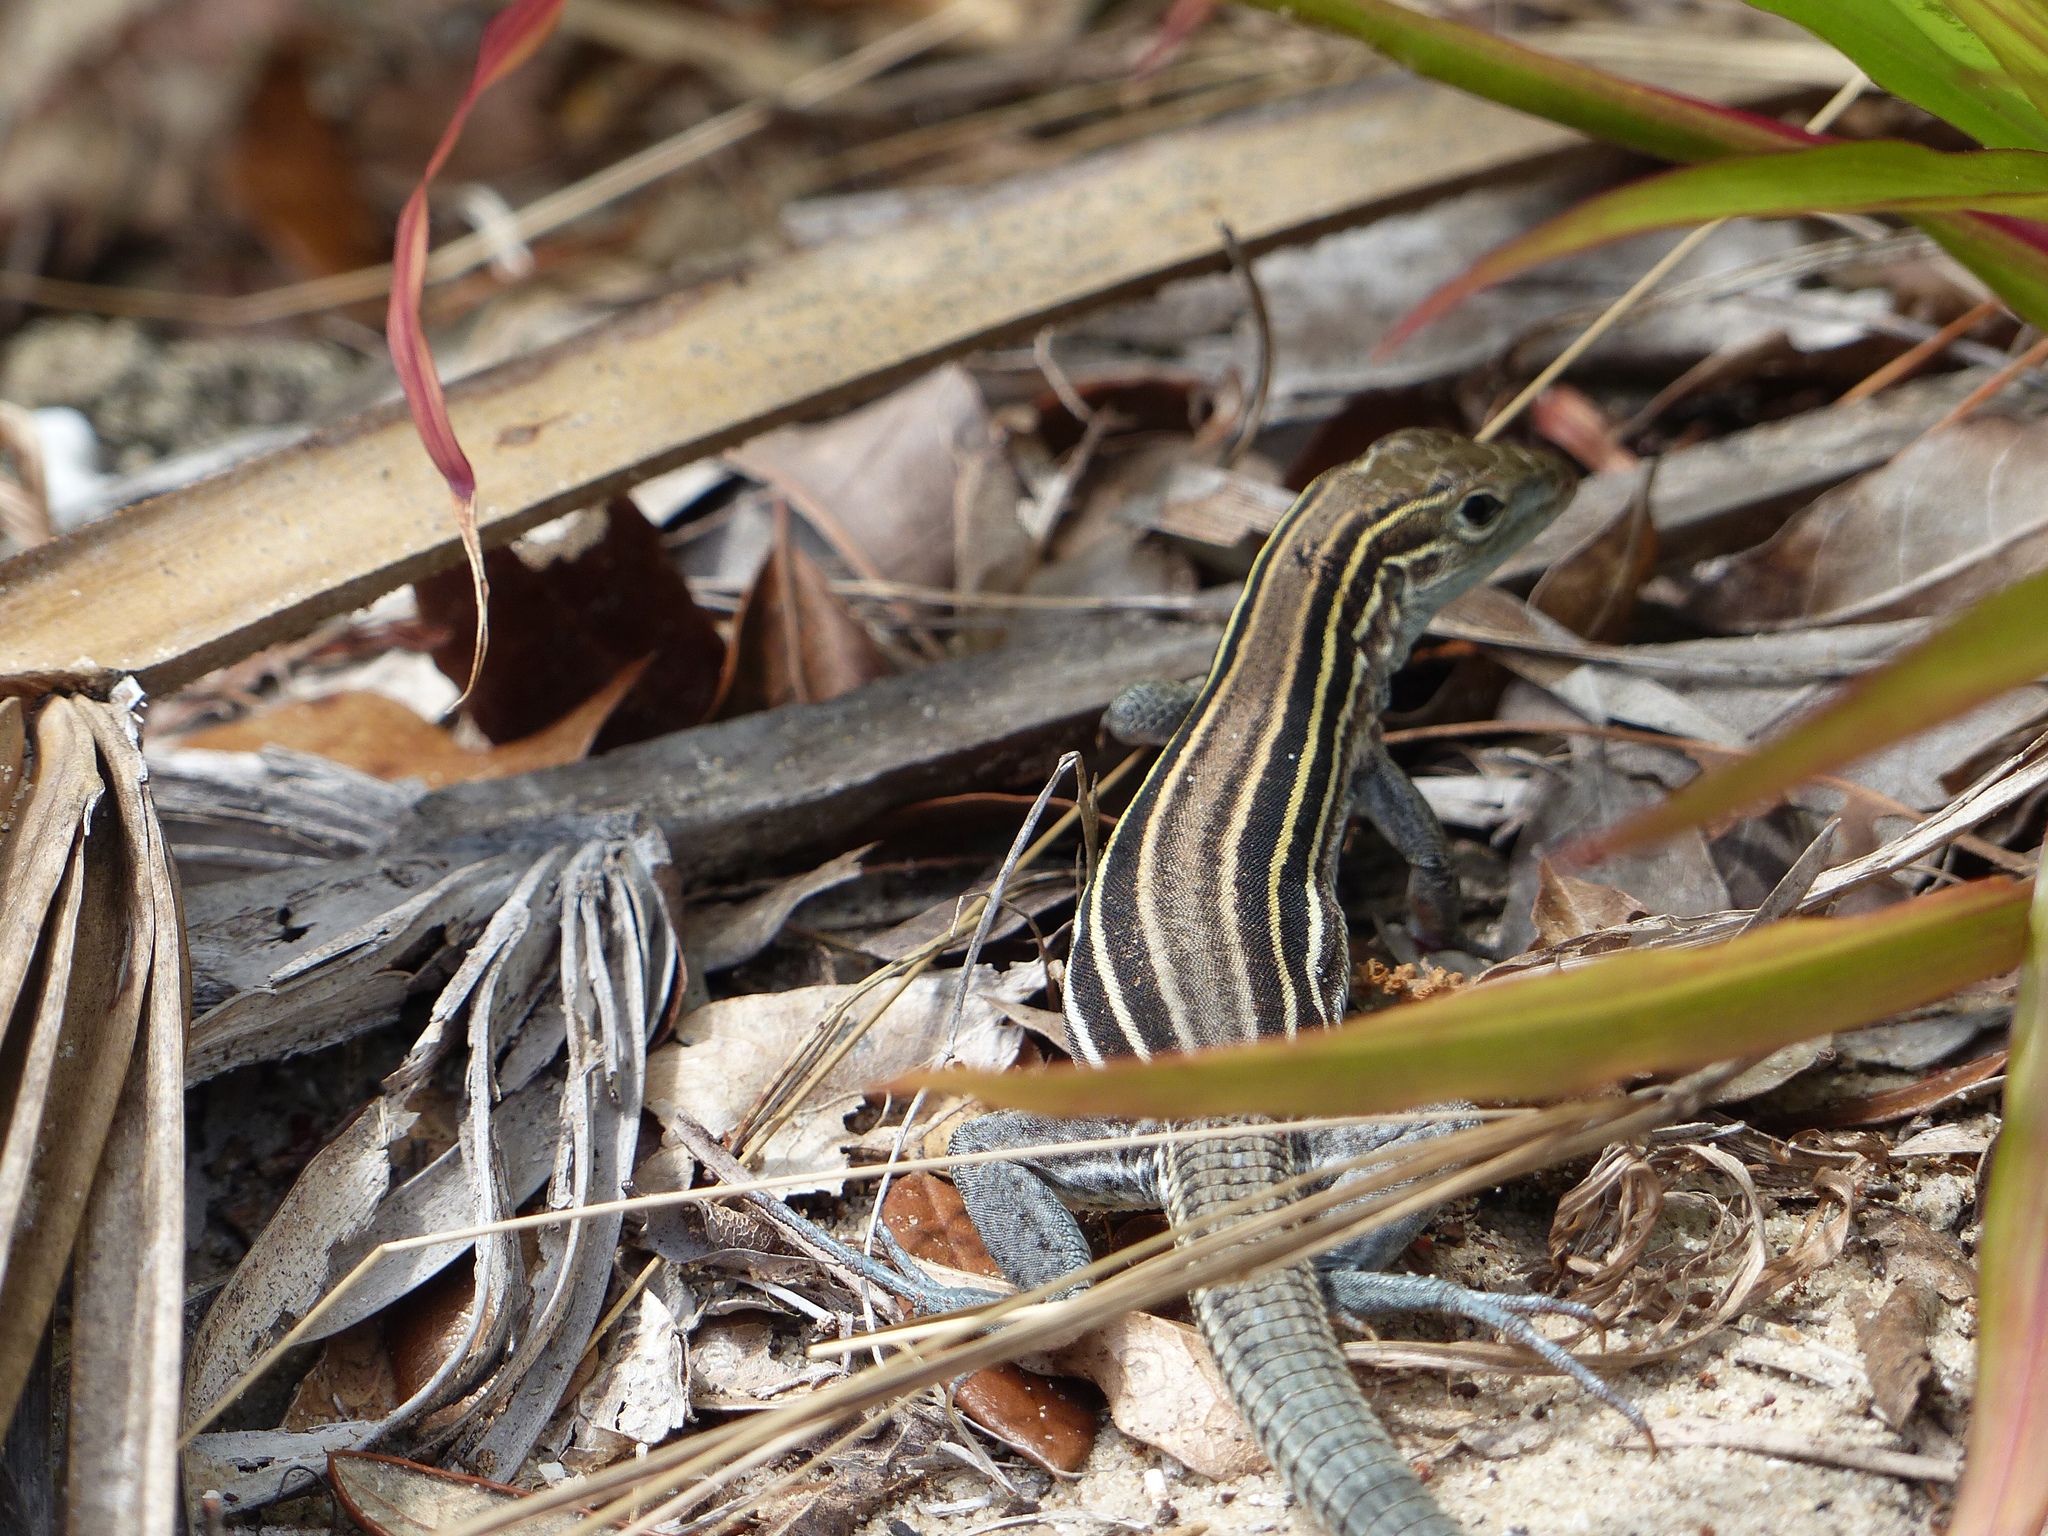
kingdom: Animalia
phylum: Chordata
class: Squamata
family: Teiidae
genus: Aspidoscelis
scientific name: Aspidoscelis sexlineatus
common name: Six-lined racerunner
